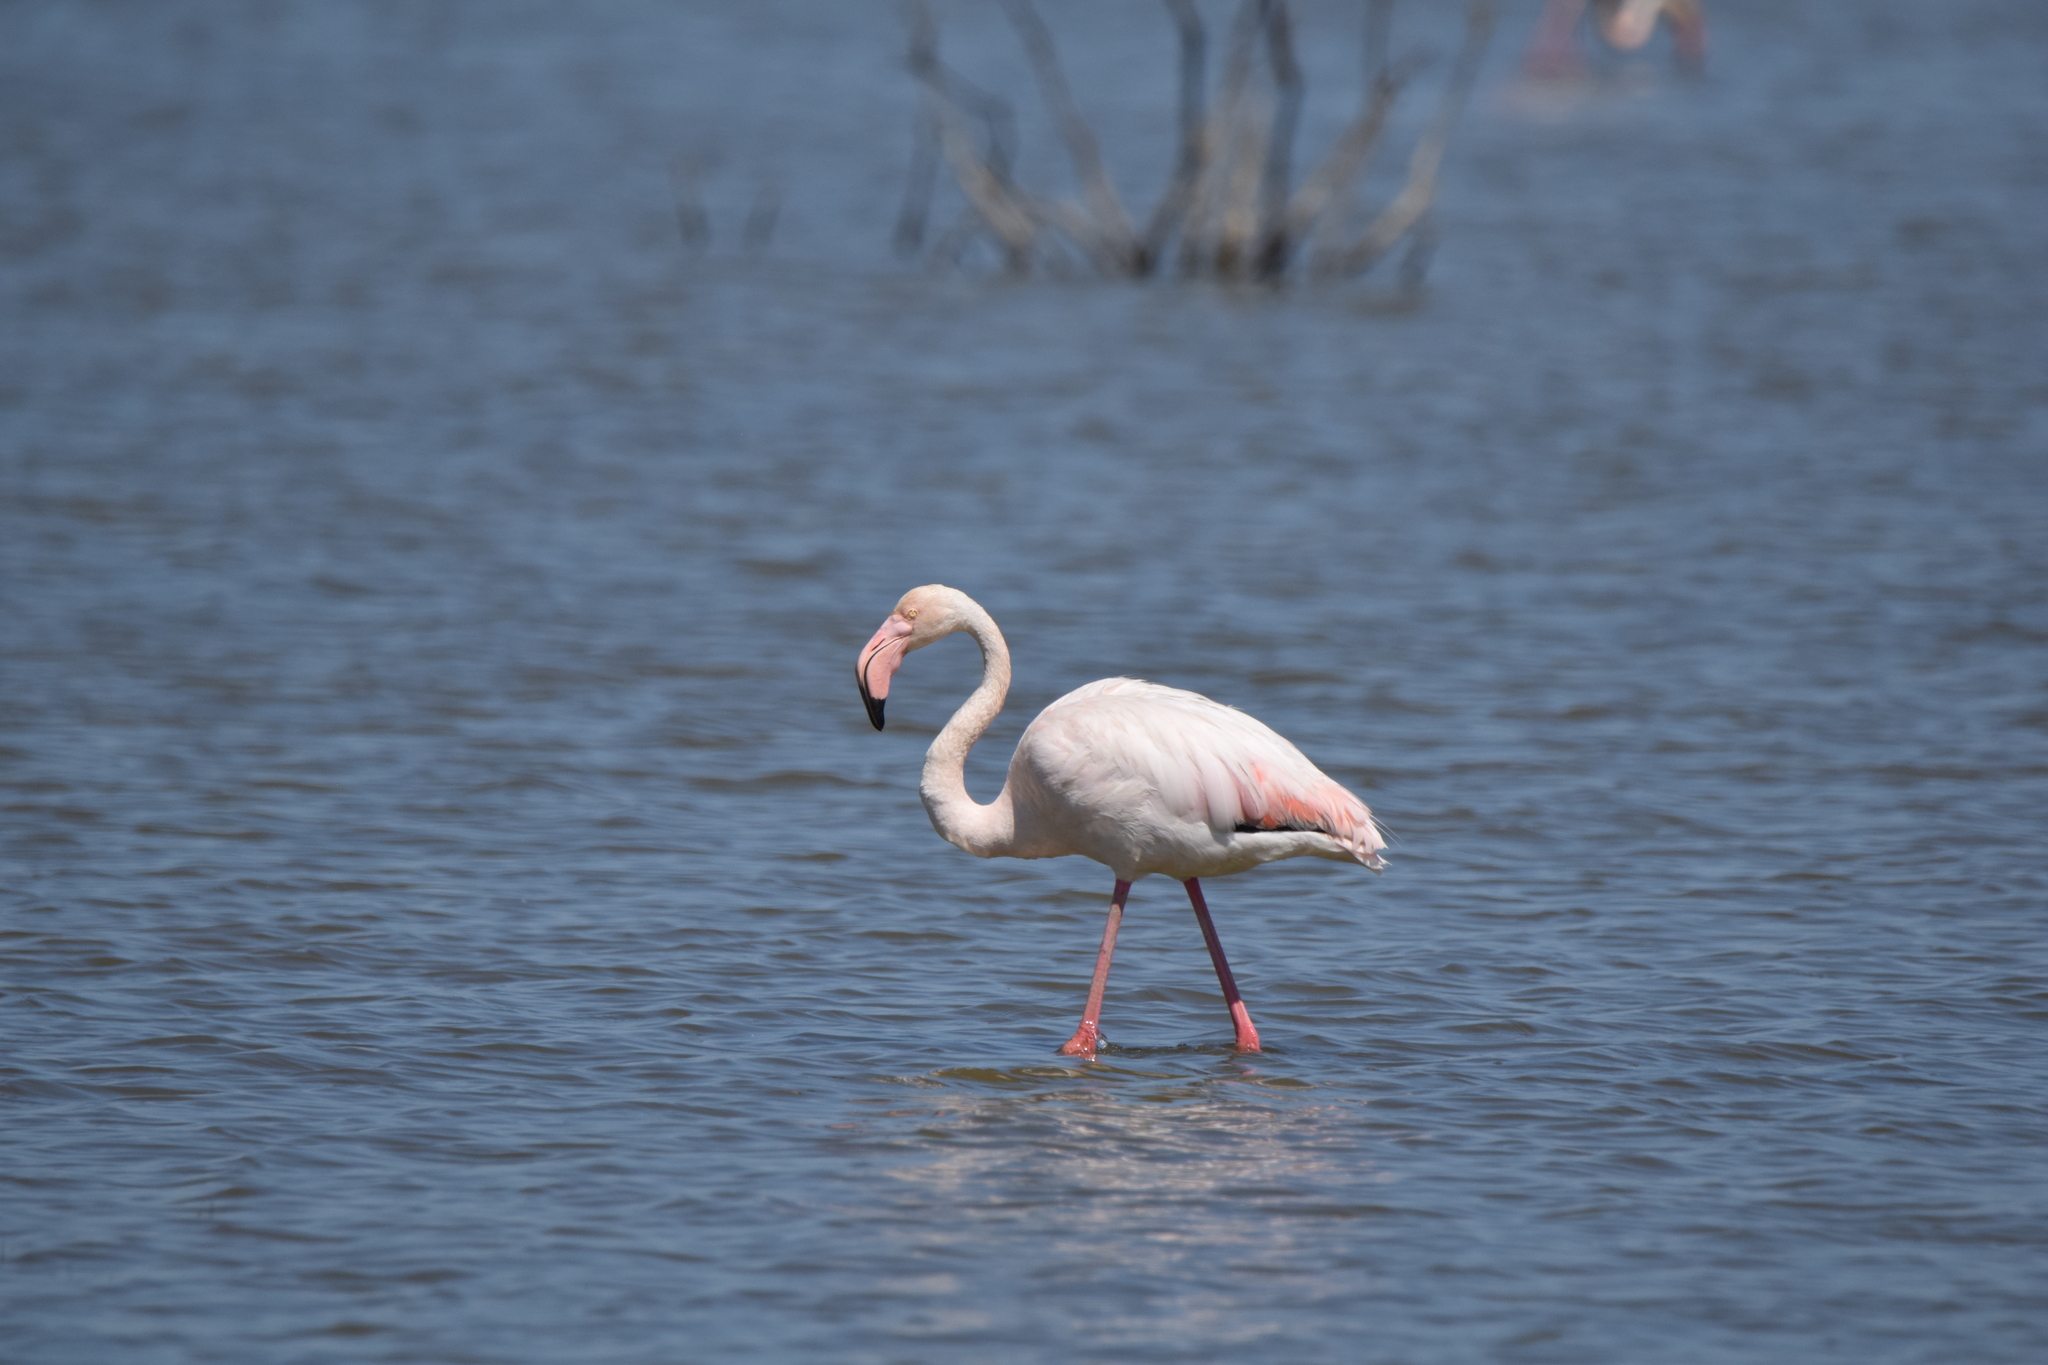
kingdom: Animalia
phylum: Chordata
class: Aves
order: Phoenicopteriformes
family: Phoenicopteridae
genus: Phoenicopterus
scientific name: Phoenicopterus roseus
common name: Greater flamingo
